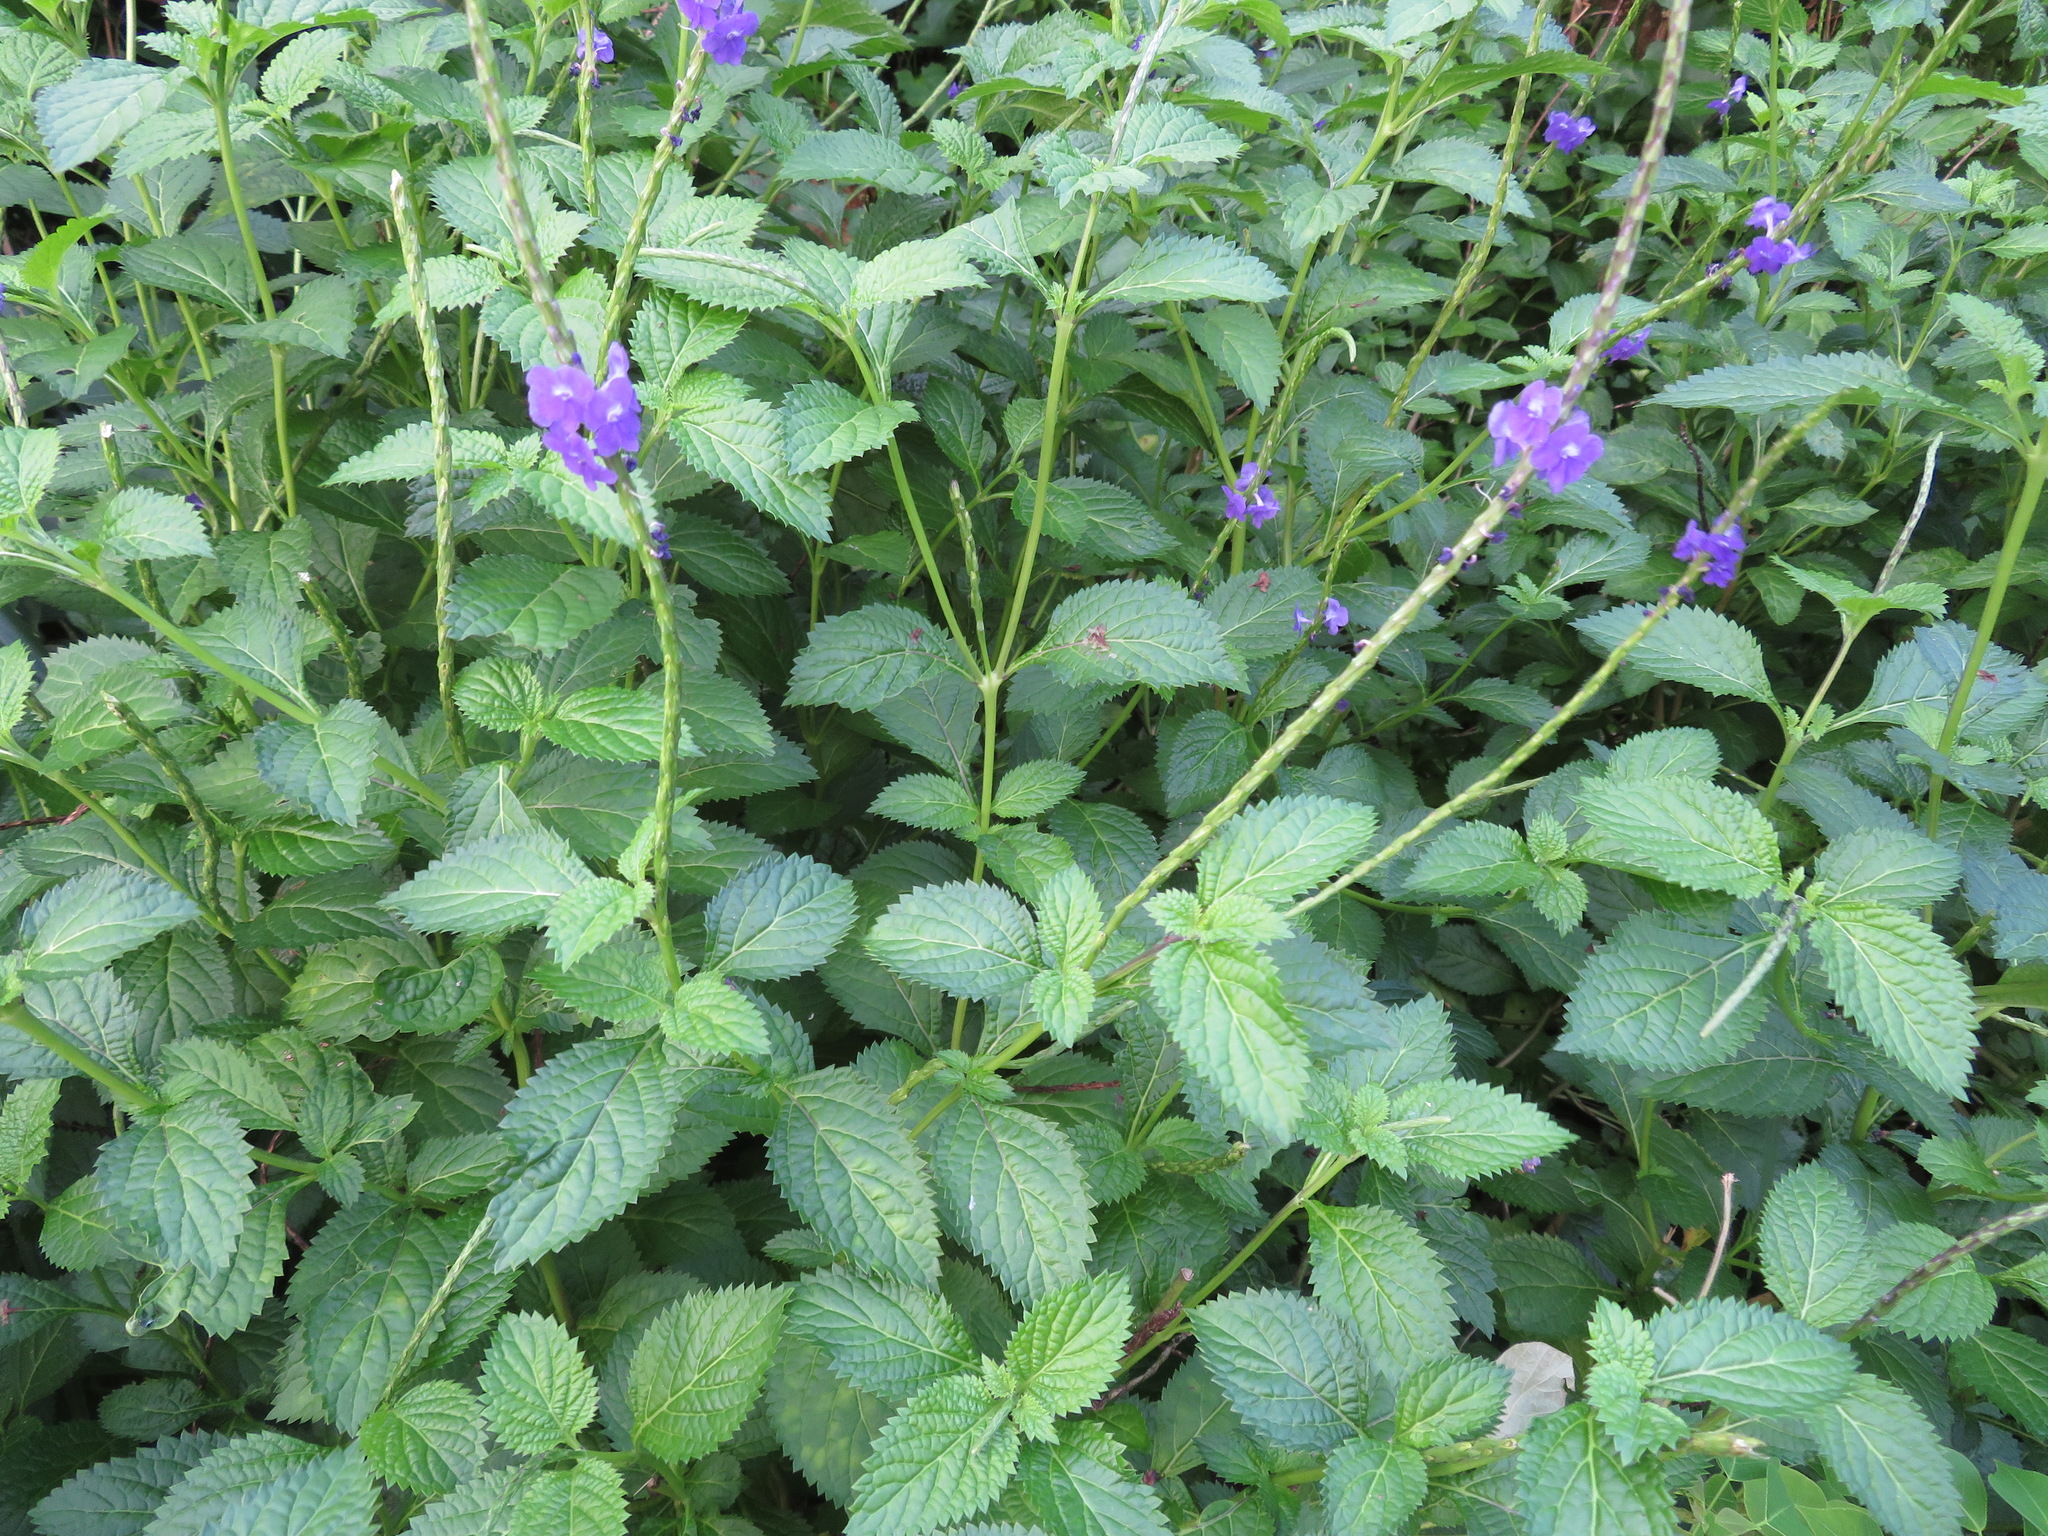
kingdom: Plantae
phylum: Tracheophyta
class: Magnoliopsida
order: Lamiales
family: Verbenaceae
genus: Stachytarpheta
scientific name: Stachytarpheta jamaicensis
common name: Light-blue snakeweed
